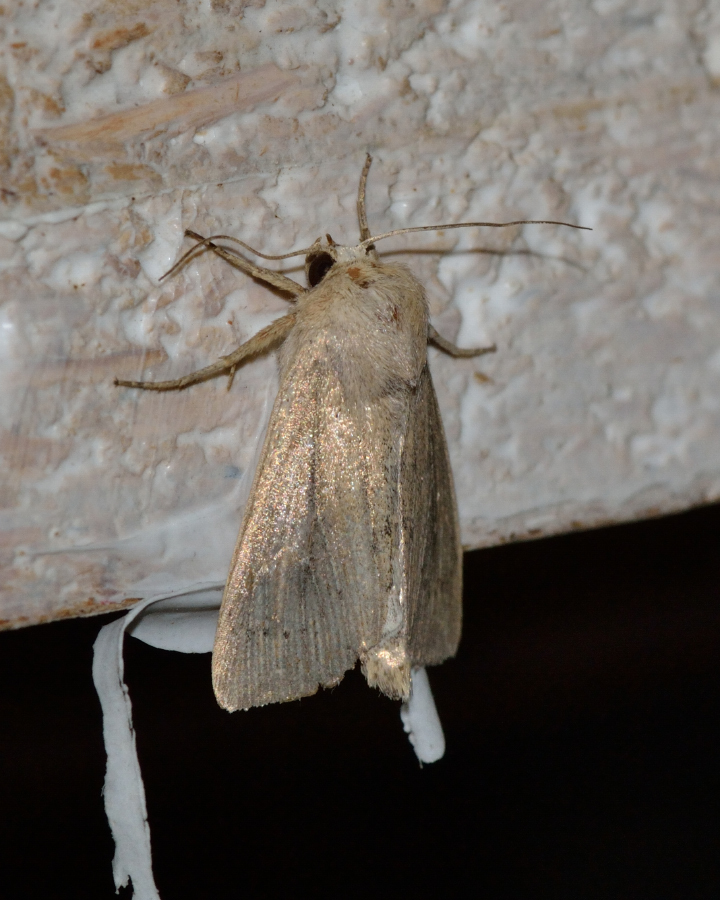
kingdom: Animalia
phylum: Arthropoda
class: Insecta
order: Lepidoptera
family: Noctuidae
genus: Leucania
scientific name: Leucania obsoleta
